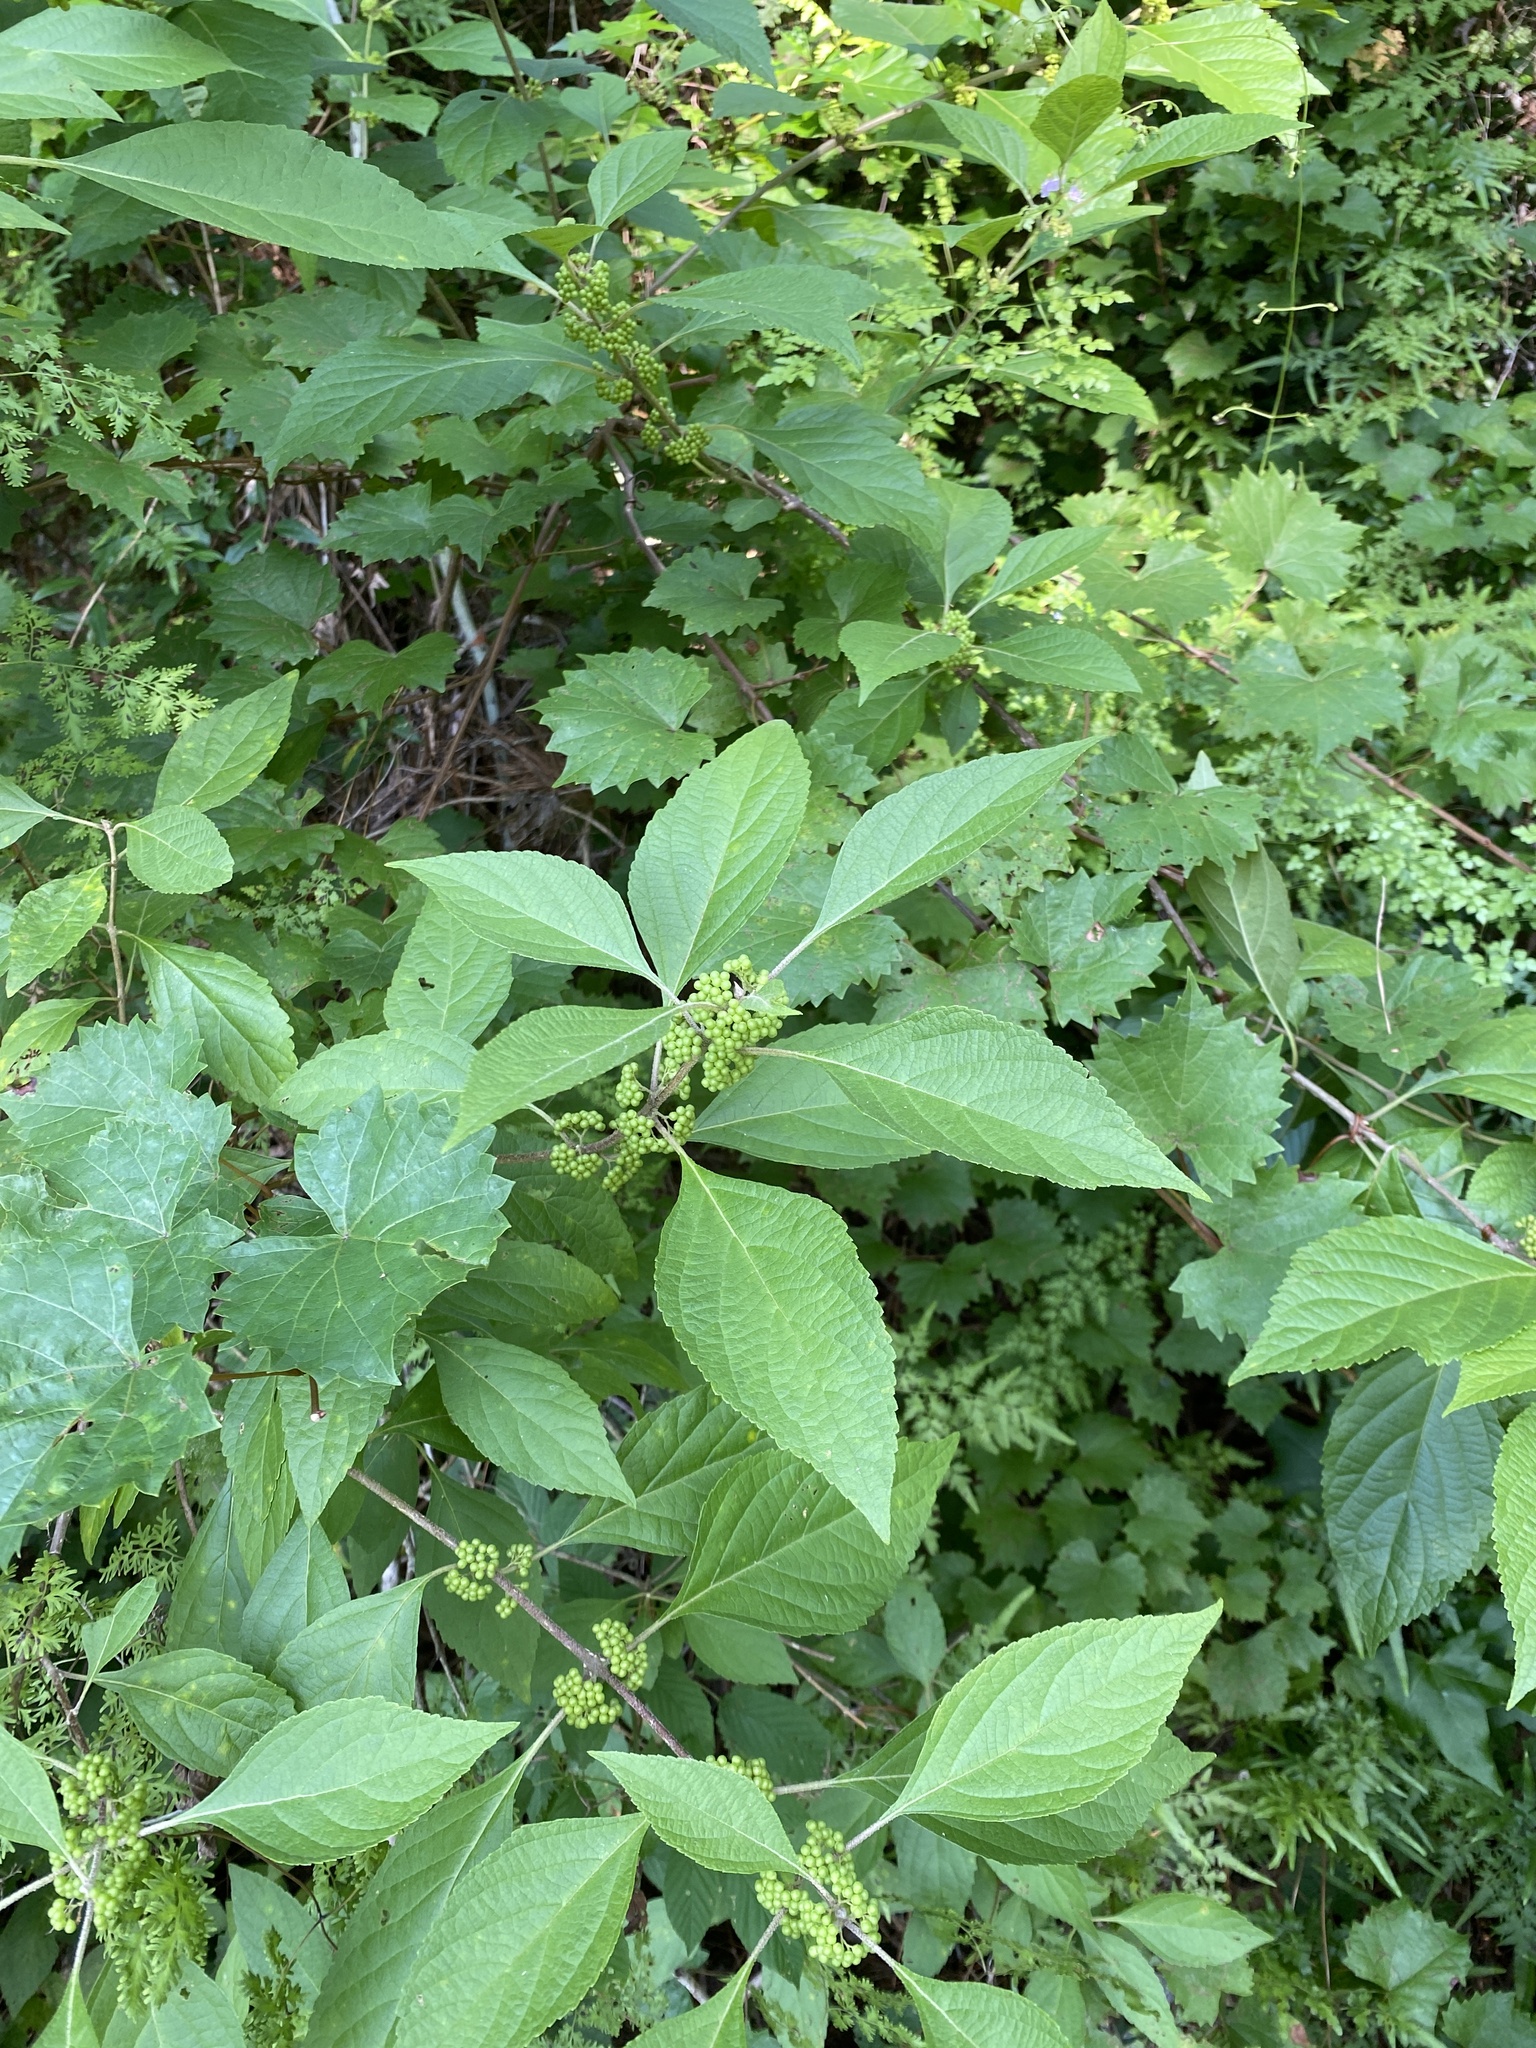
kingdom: Plantae
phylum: Tracheophyta
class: Magnoliopsida
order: Lamiales
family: Lamiaceae
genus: Callicarpa
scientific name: Callicarpa americana
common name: American beautyberry
